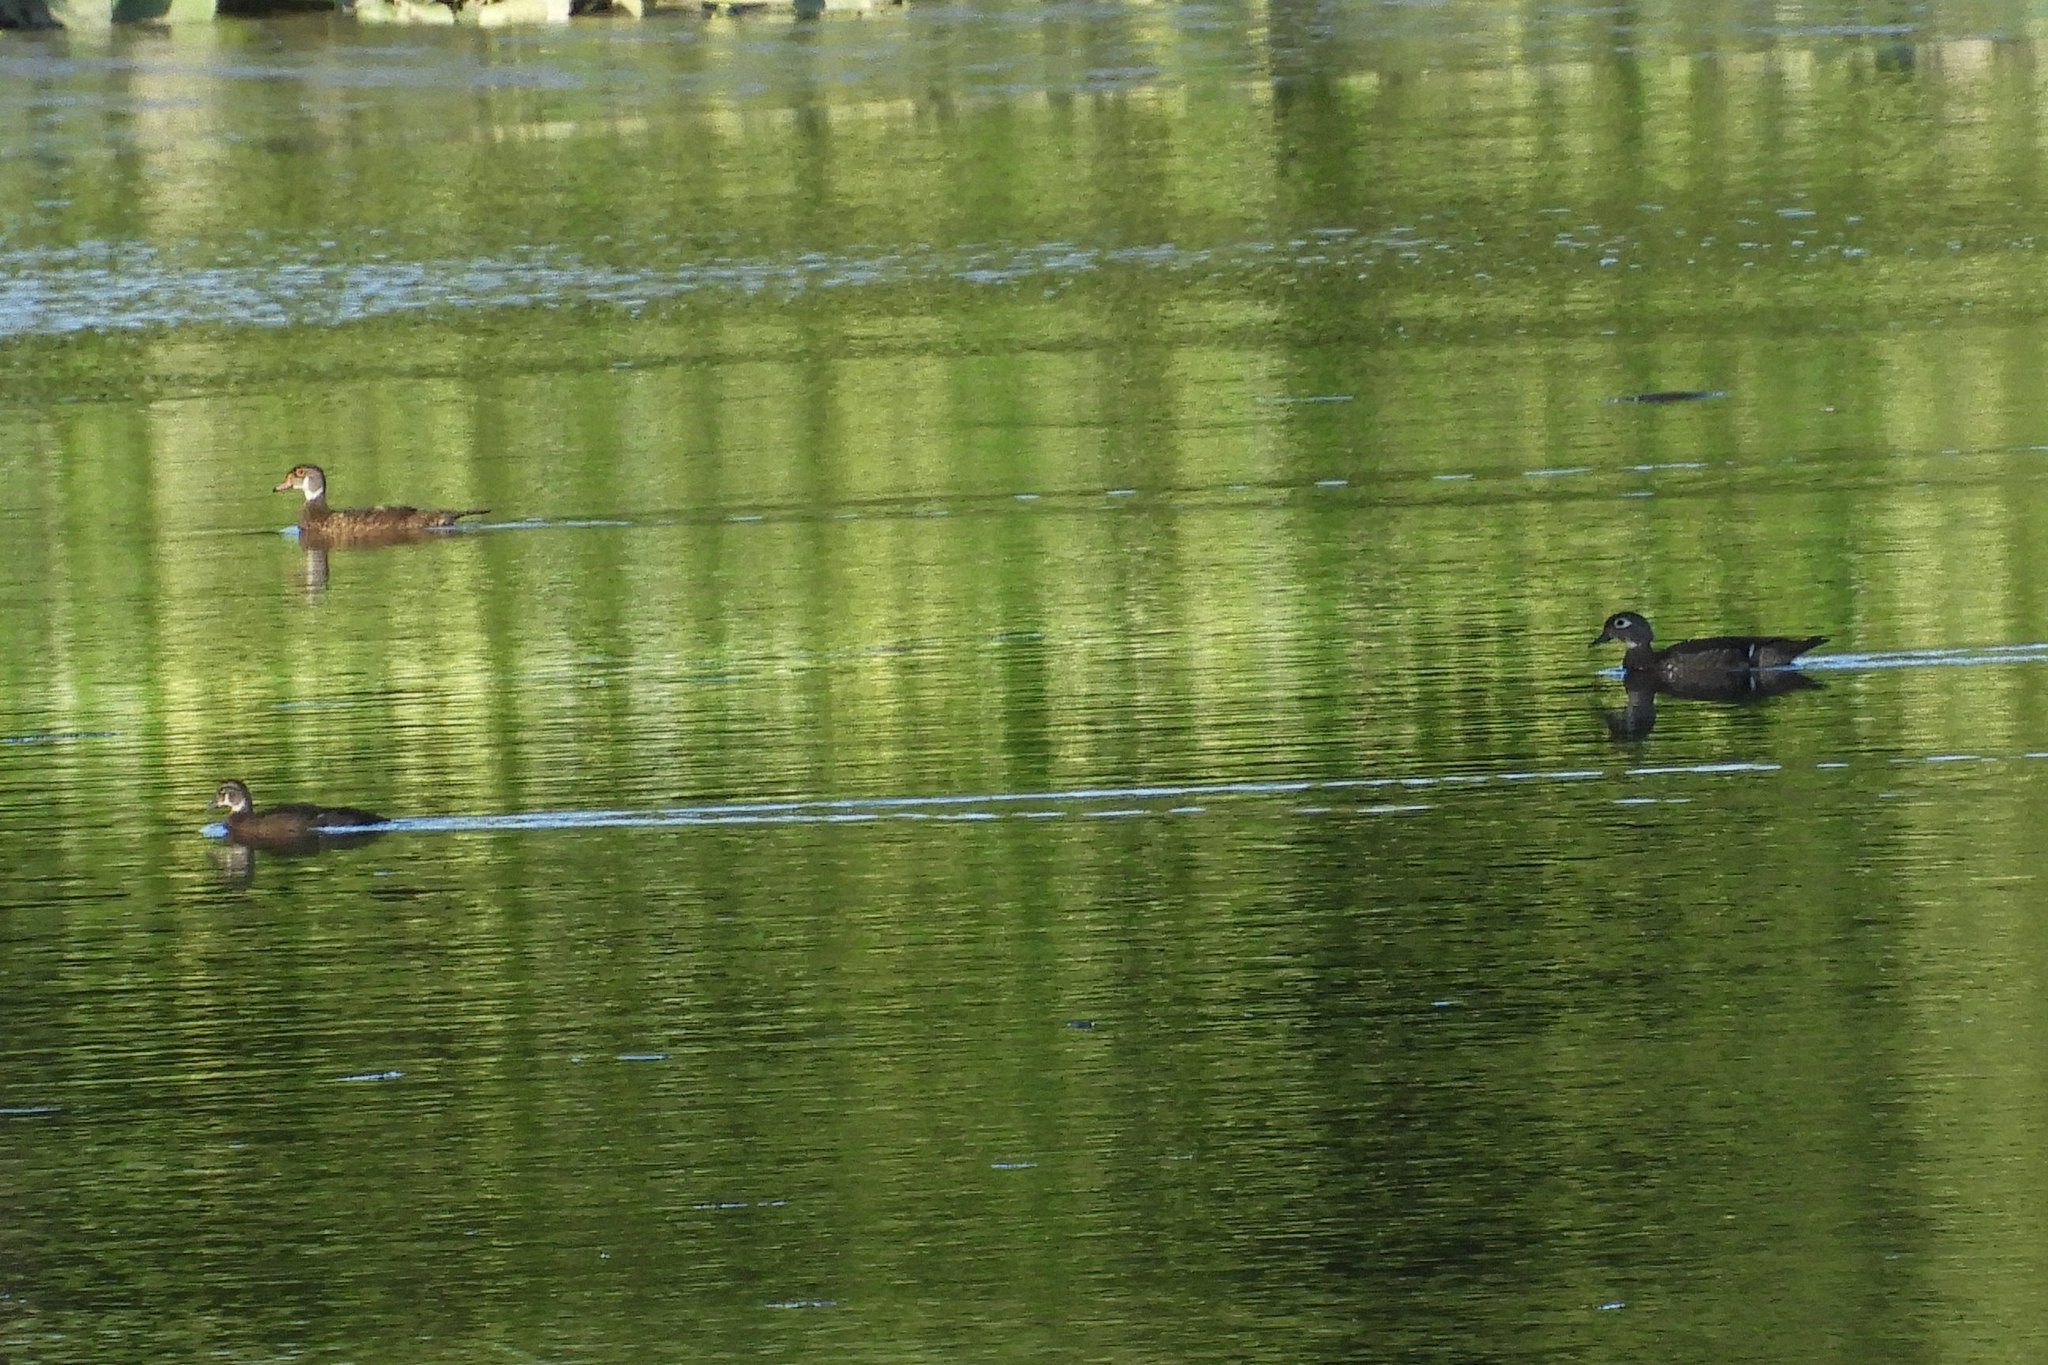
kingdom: Animalia
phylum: Chordata
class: Aves
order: Anseriformes
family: Anatidae
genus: Aix
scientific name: Aix sponsa
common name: Wood duck
